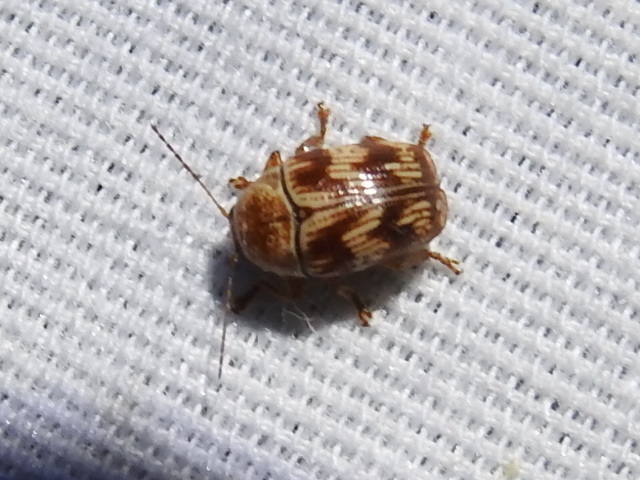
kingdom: Animalia
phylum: Arthropoda
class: Insecta
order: Coleoptera
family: Chrysomelidae
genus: Cryptocephalus
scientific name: Cryptocephalus implacidus
